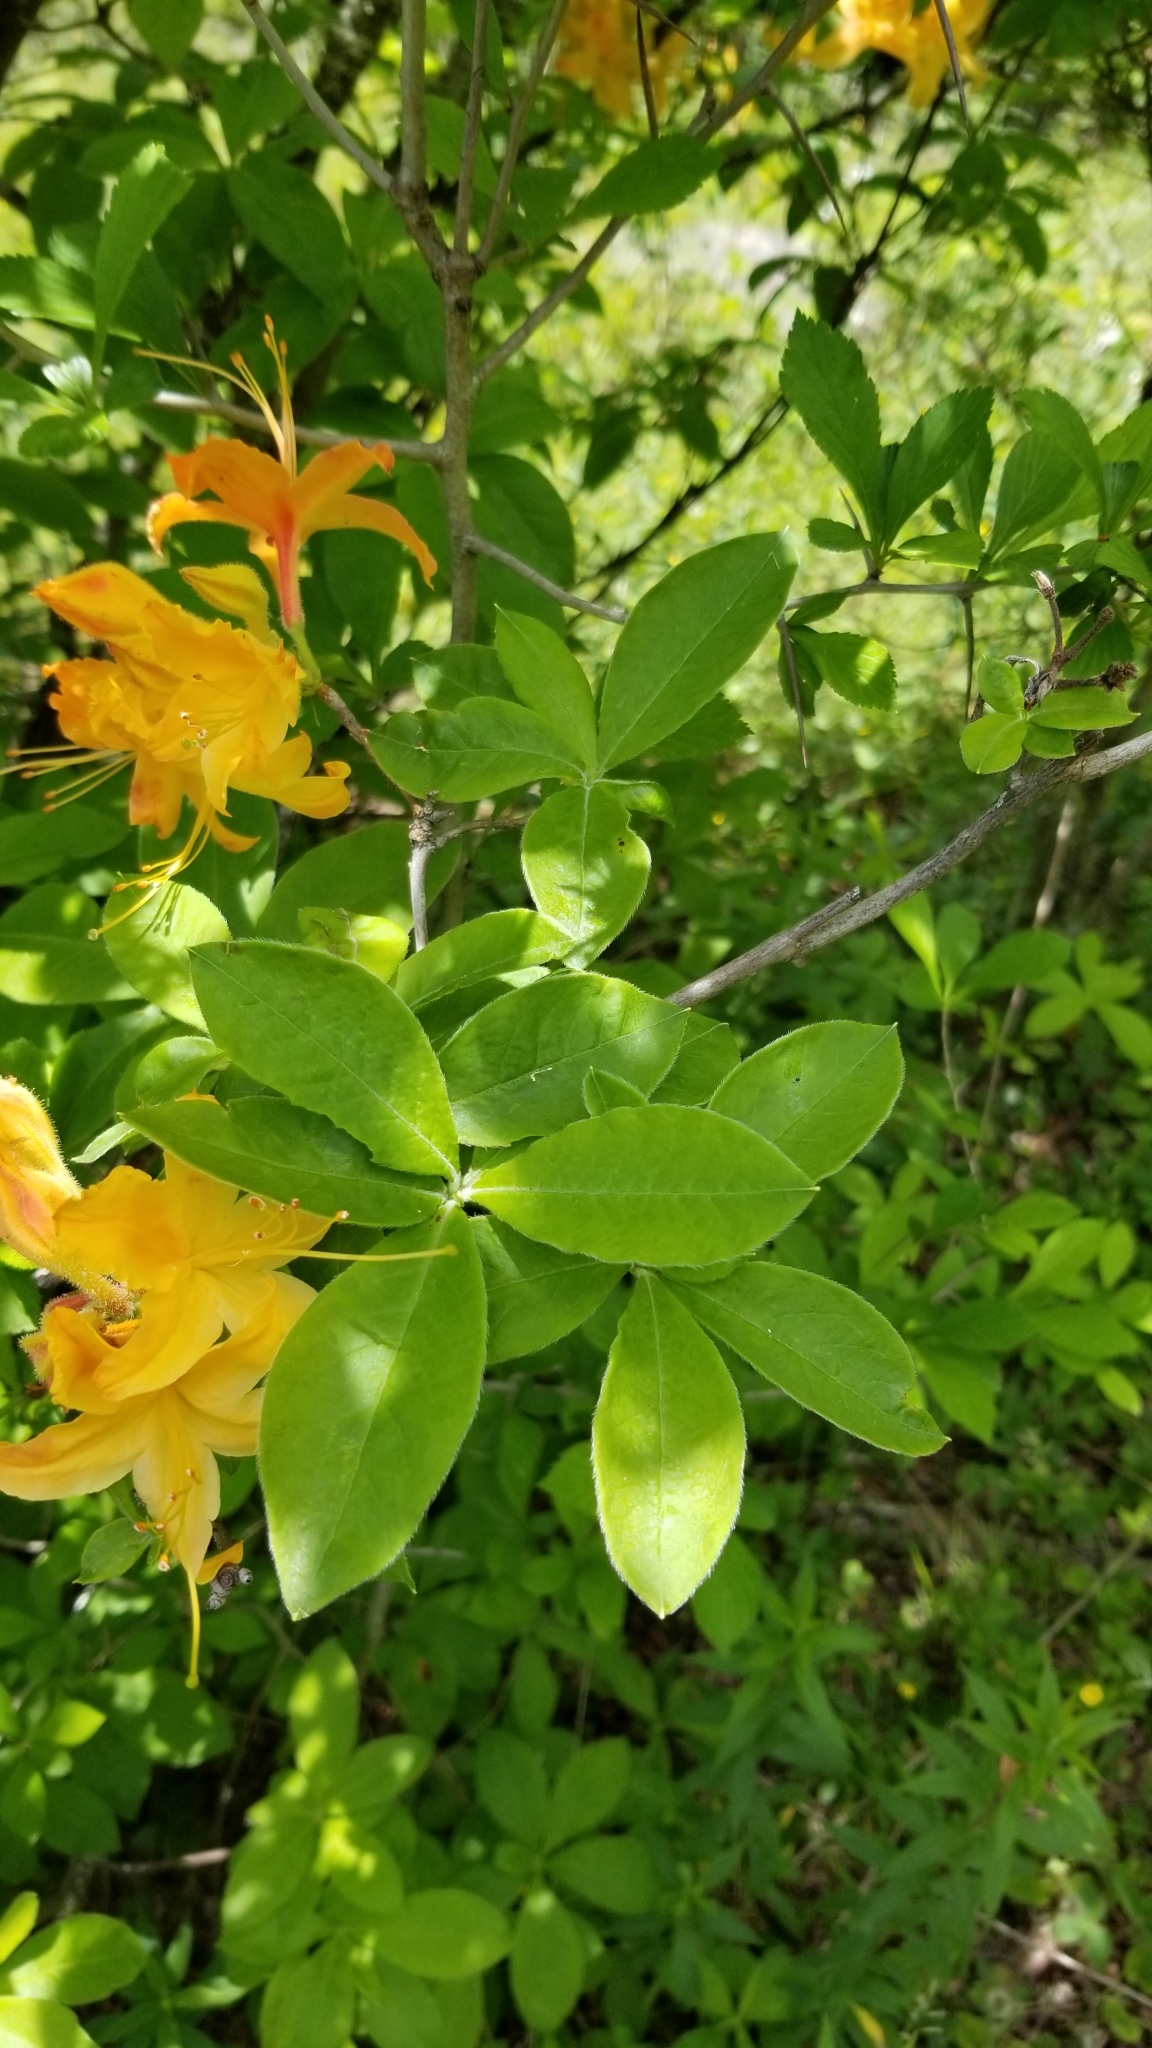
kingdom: Plantae
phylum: Tracheophyta
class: Magnoliopsida
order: Ericales
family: Ericaceae
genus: Rhododendron
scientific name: Rhododendron calendulaceum
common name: Flame azalea
